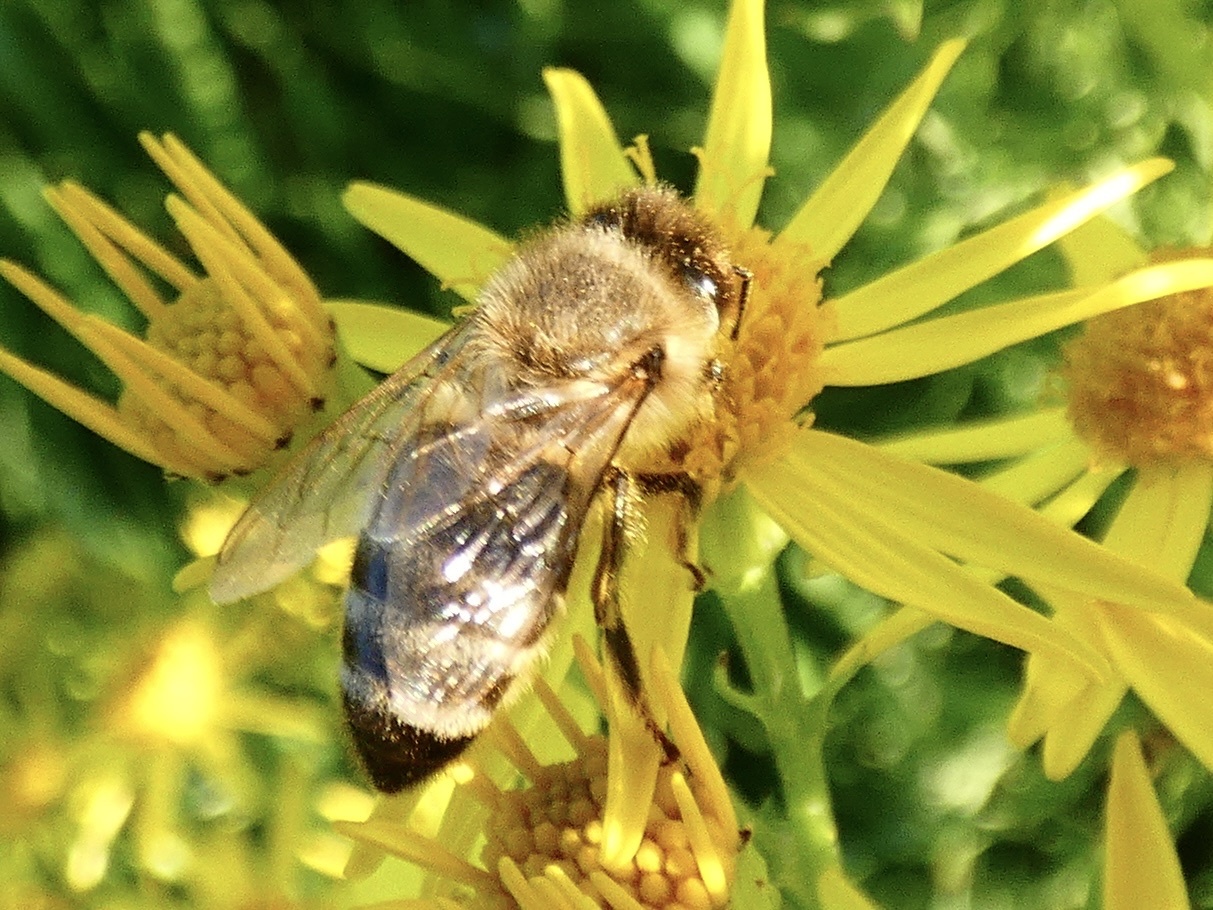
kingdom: Animalia
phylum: Arthropoda
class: Insecta
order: Hymenoptera
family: Apidae
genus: Apis
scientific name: Apis mellifera
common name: Honey bee
